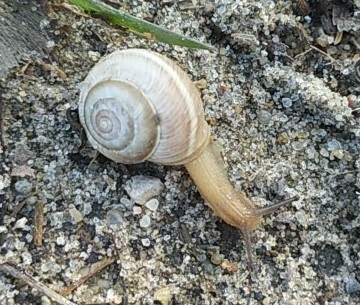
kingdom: Animalia
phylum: Mollusca
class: Gastropoda
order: Stylommatophora
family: Hygromiidae
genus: Harmozica
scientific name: Harmozica ravergiensis
